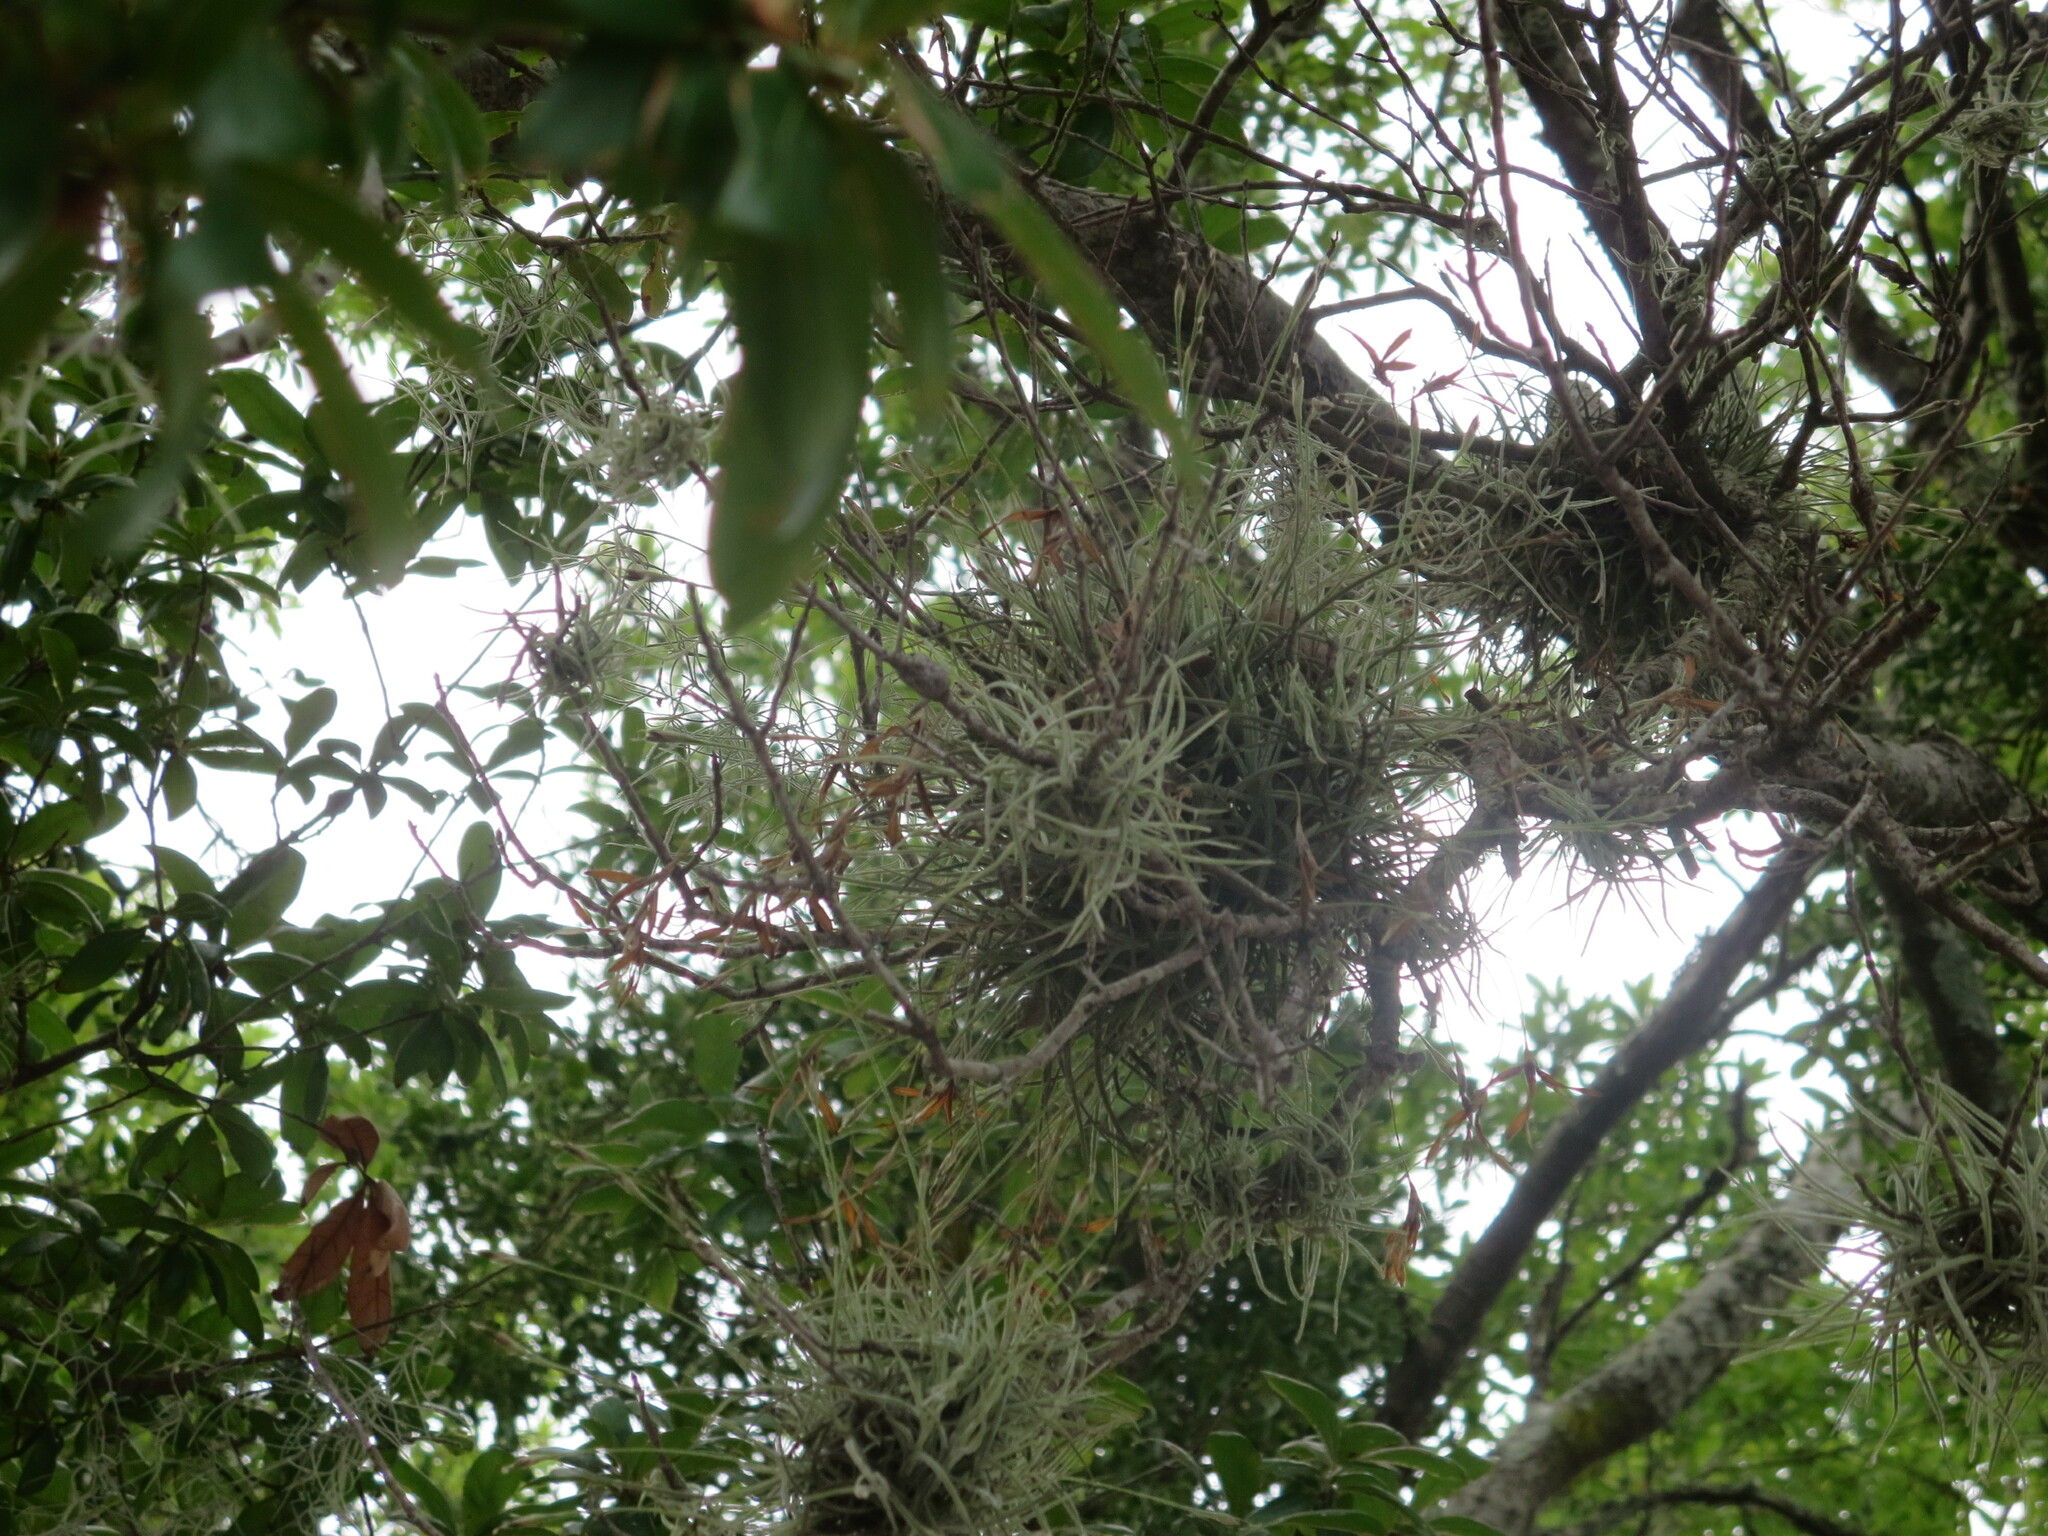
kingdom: Plantae
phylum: Tracheophyta
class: Liliopsida
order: Poales
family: Bromeliaceae
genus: Tillandsia
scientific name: Tillandsia recurvata
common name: Small ballmoss
